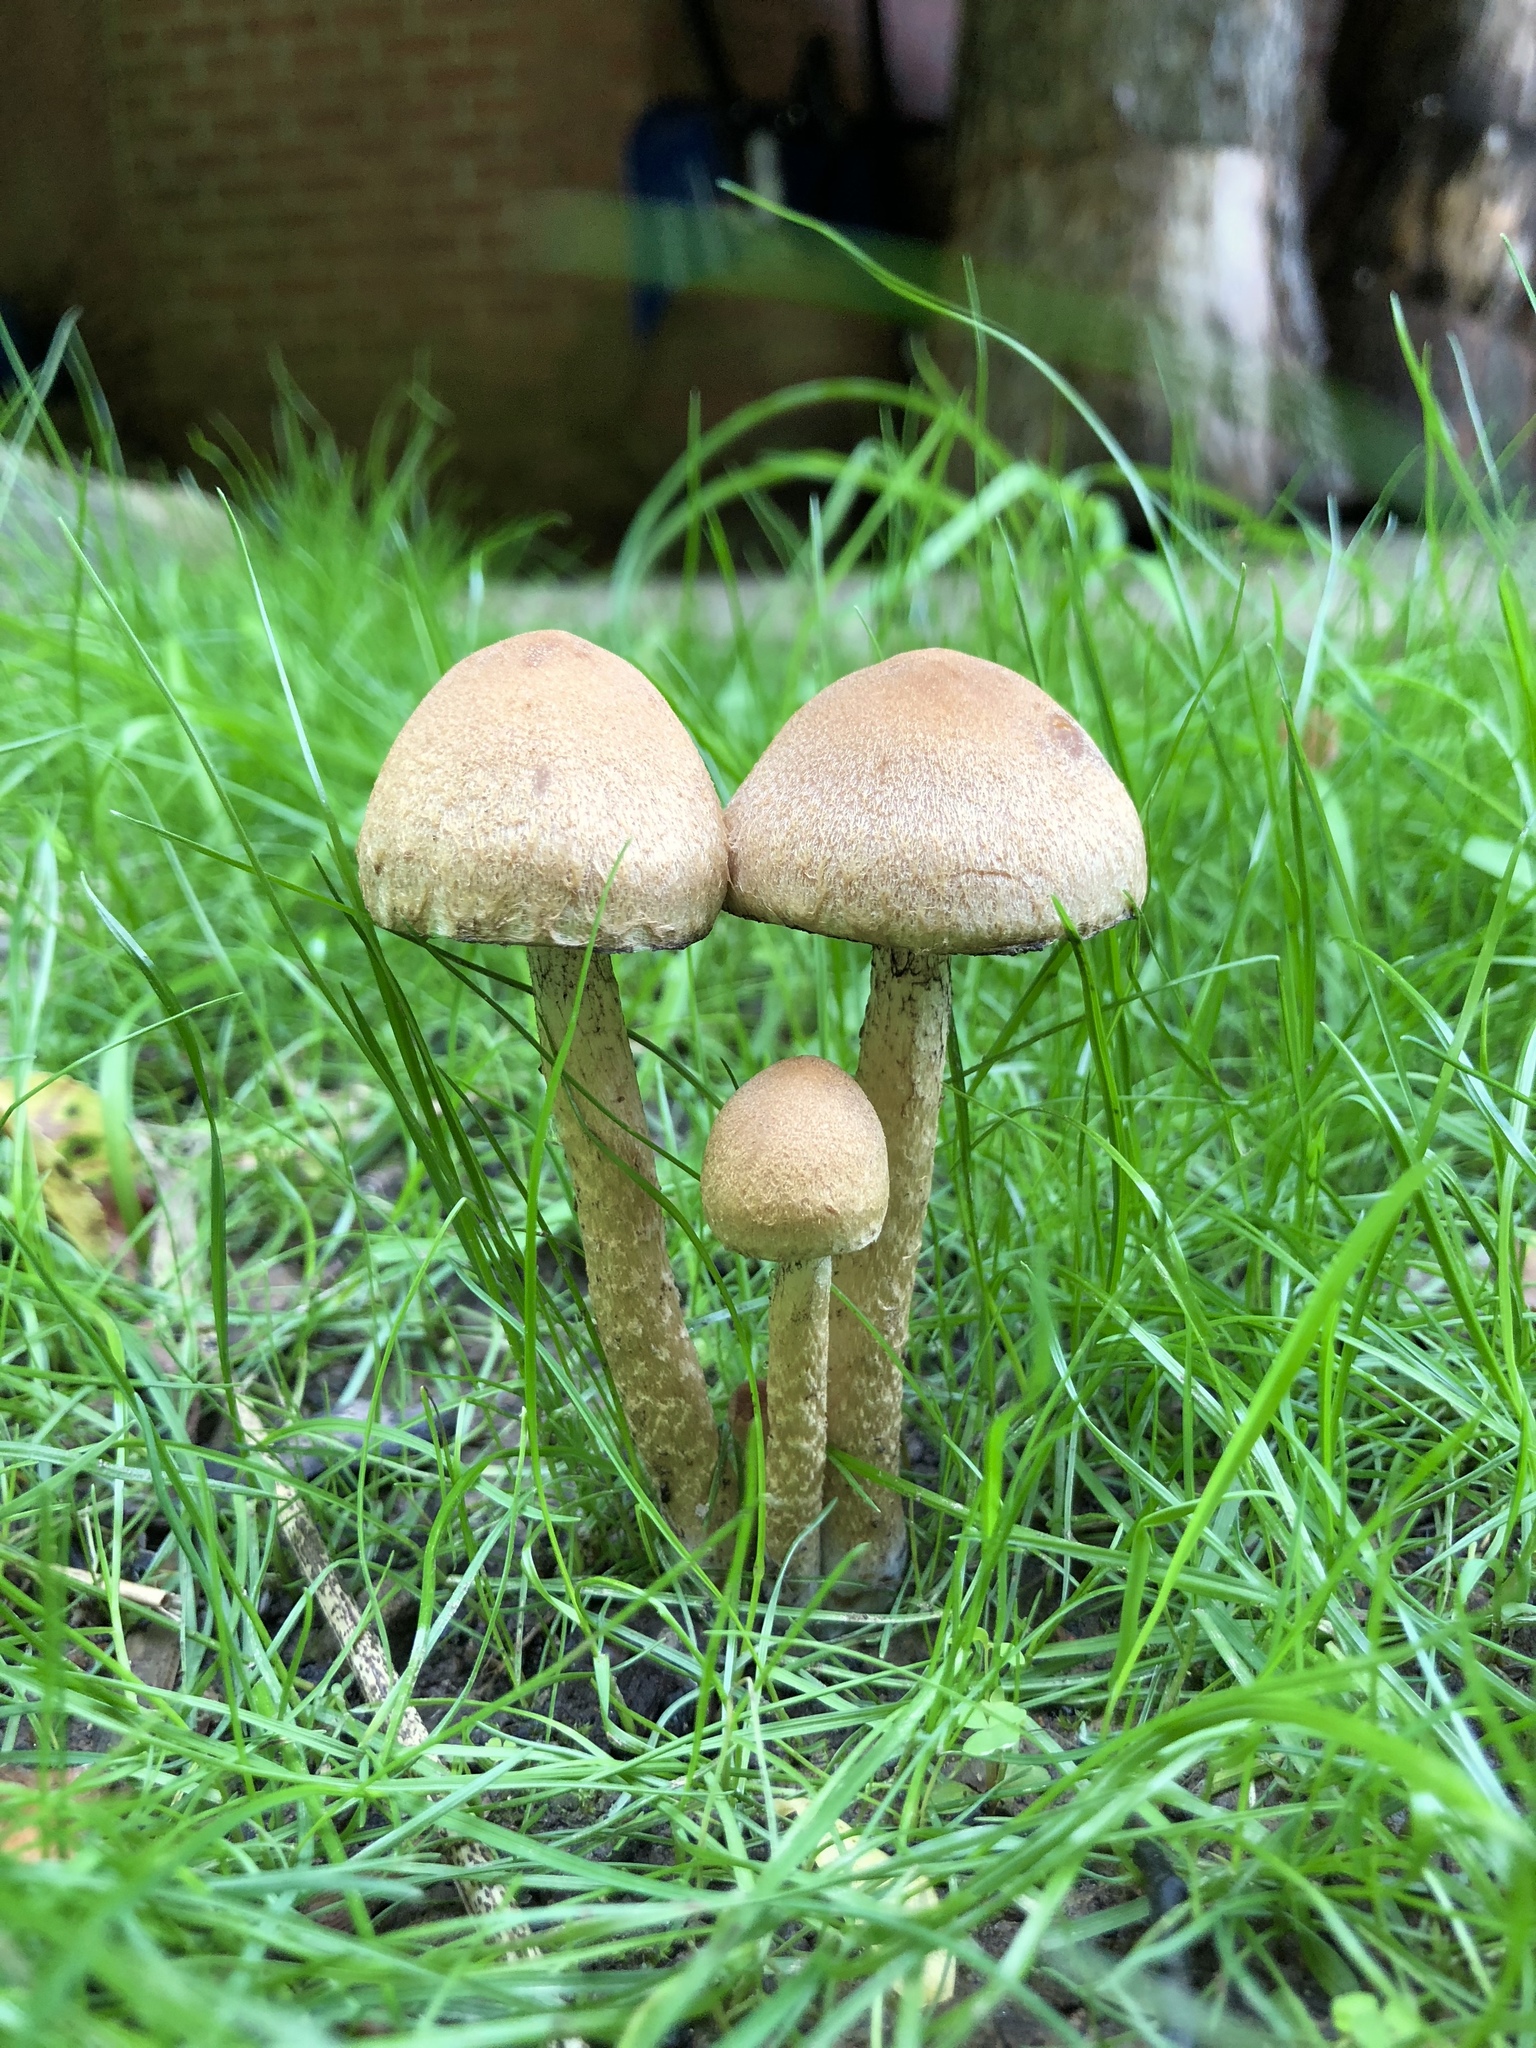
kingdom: Fungi
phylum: Basidiomycota
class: Agaricomycetes
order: Agaricales
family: Psathyrellaceae
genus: Lacrymaria
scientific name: Lacrymaria lacrymabunda
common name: Weeping widow
